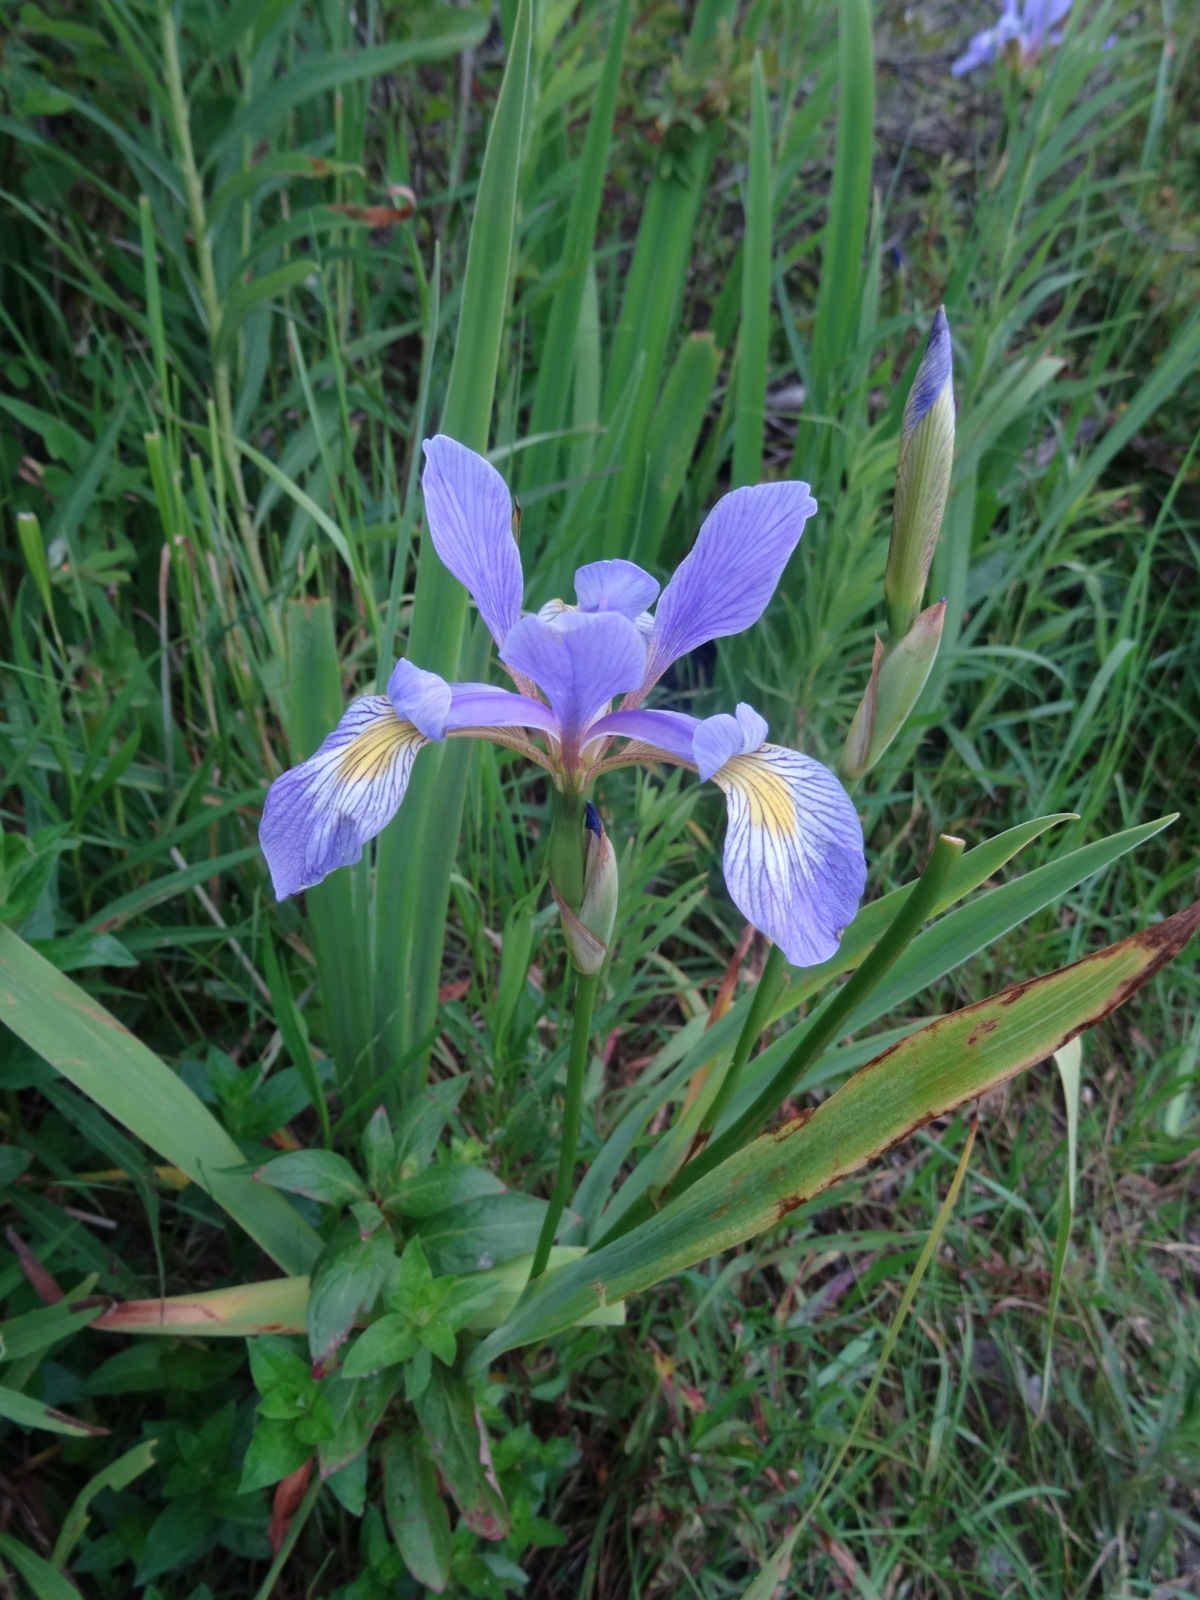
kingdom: Plantae
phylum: Tracheophyta
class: Liliopsida
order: Asparagales
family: Iridaceae
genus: Iris
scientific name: Iris virginica
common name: Southern blue flag
